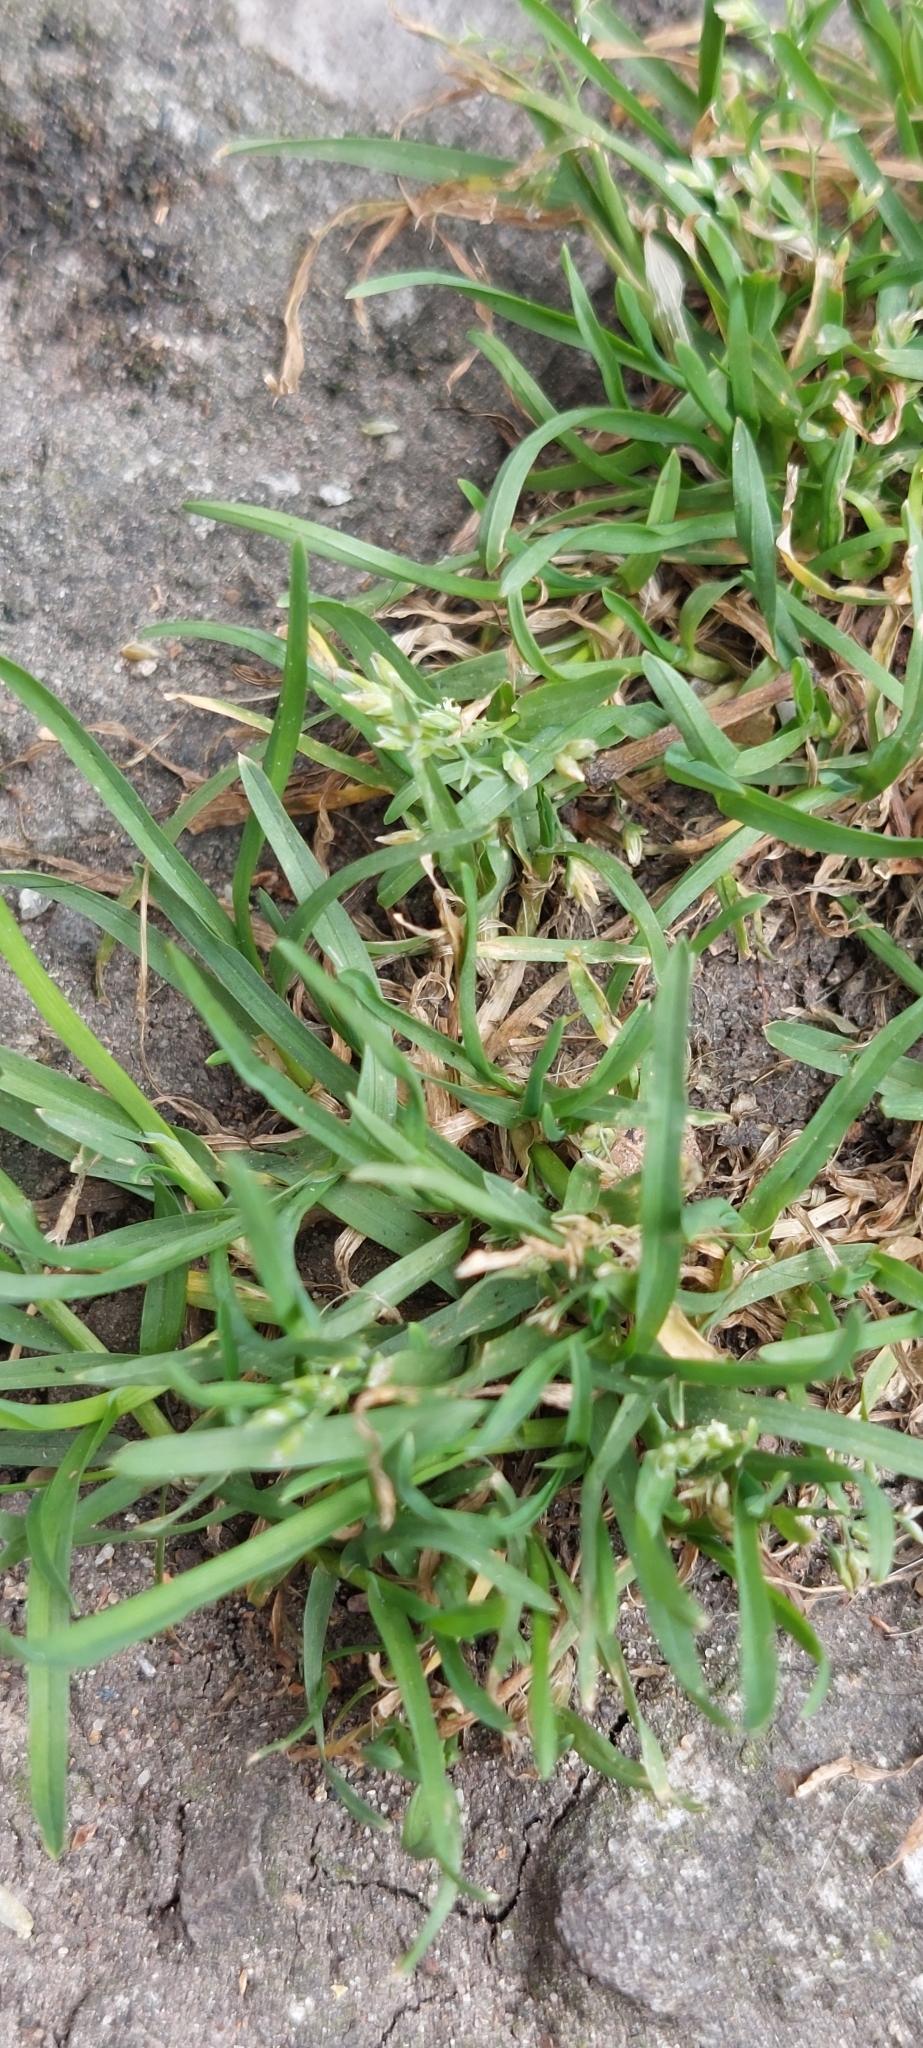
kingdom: Plantae
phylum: Tracheophyta
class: Liliopsida
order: Poales
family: Poaceae
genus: Poa
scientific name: Poa annua
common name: Annual bluegrass
